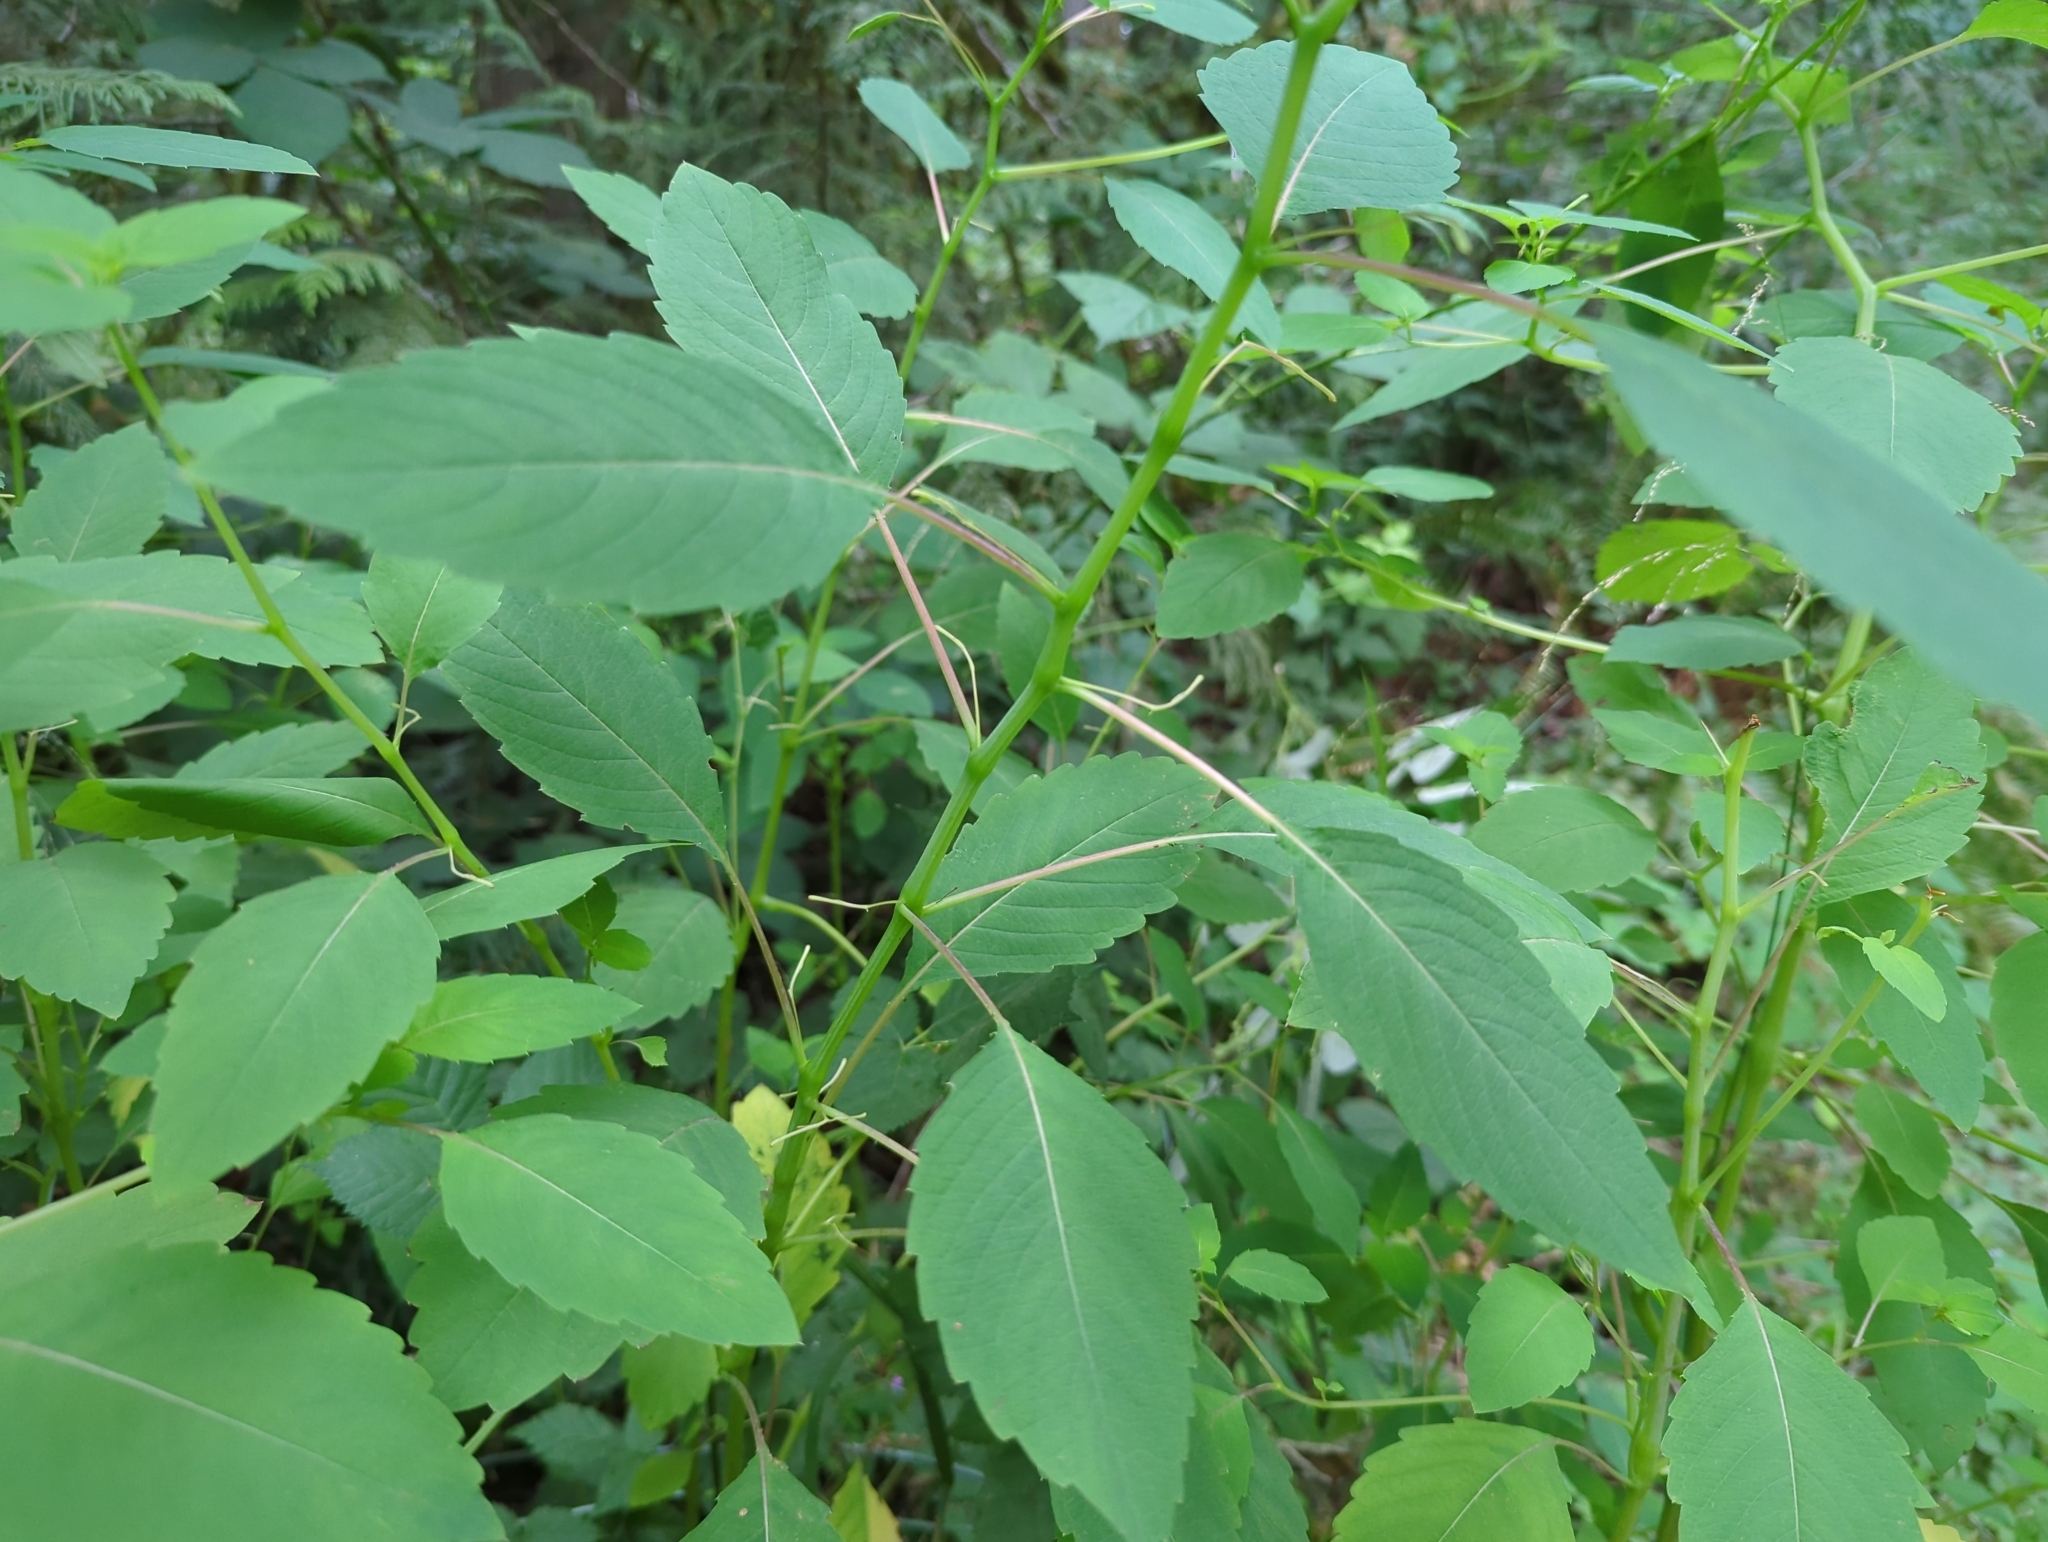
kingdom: Plantae
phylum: Tracheophyta
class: Magnoliopsida
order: Ericales
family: Balsaminaceae
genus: Impatiens
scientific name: Impatiens capensis
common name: Orange balsam
